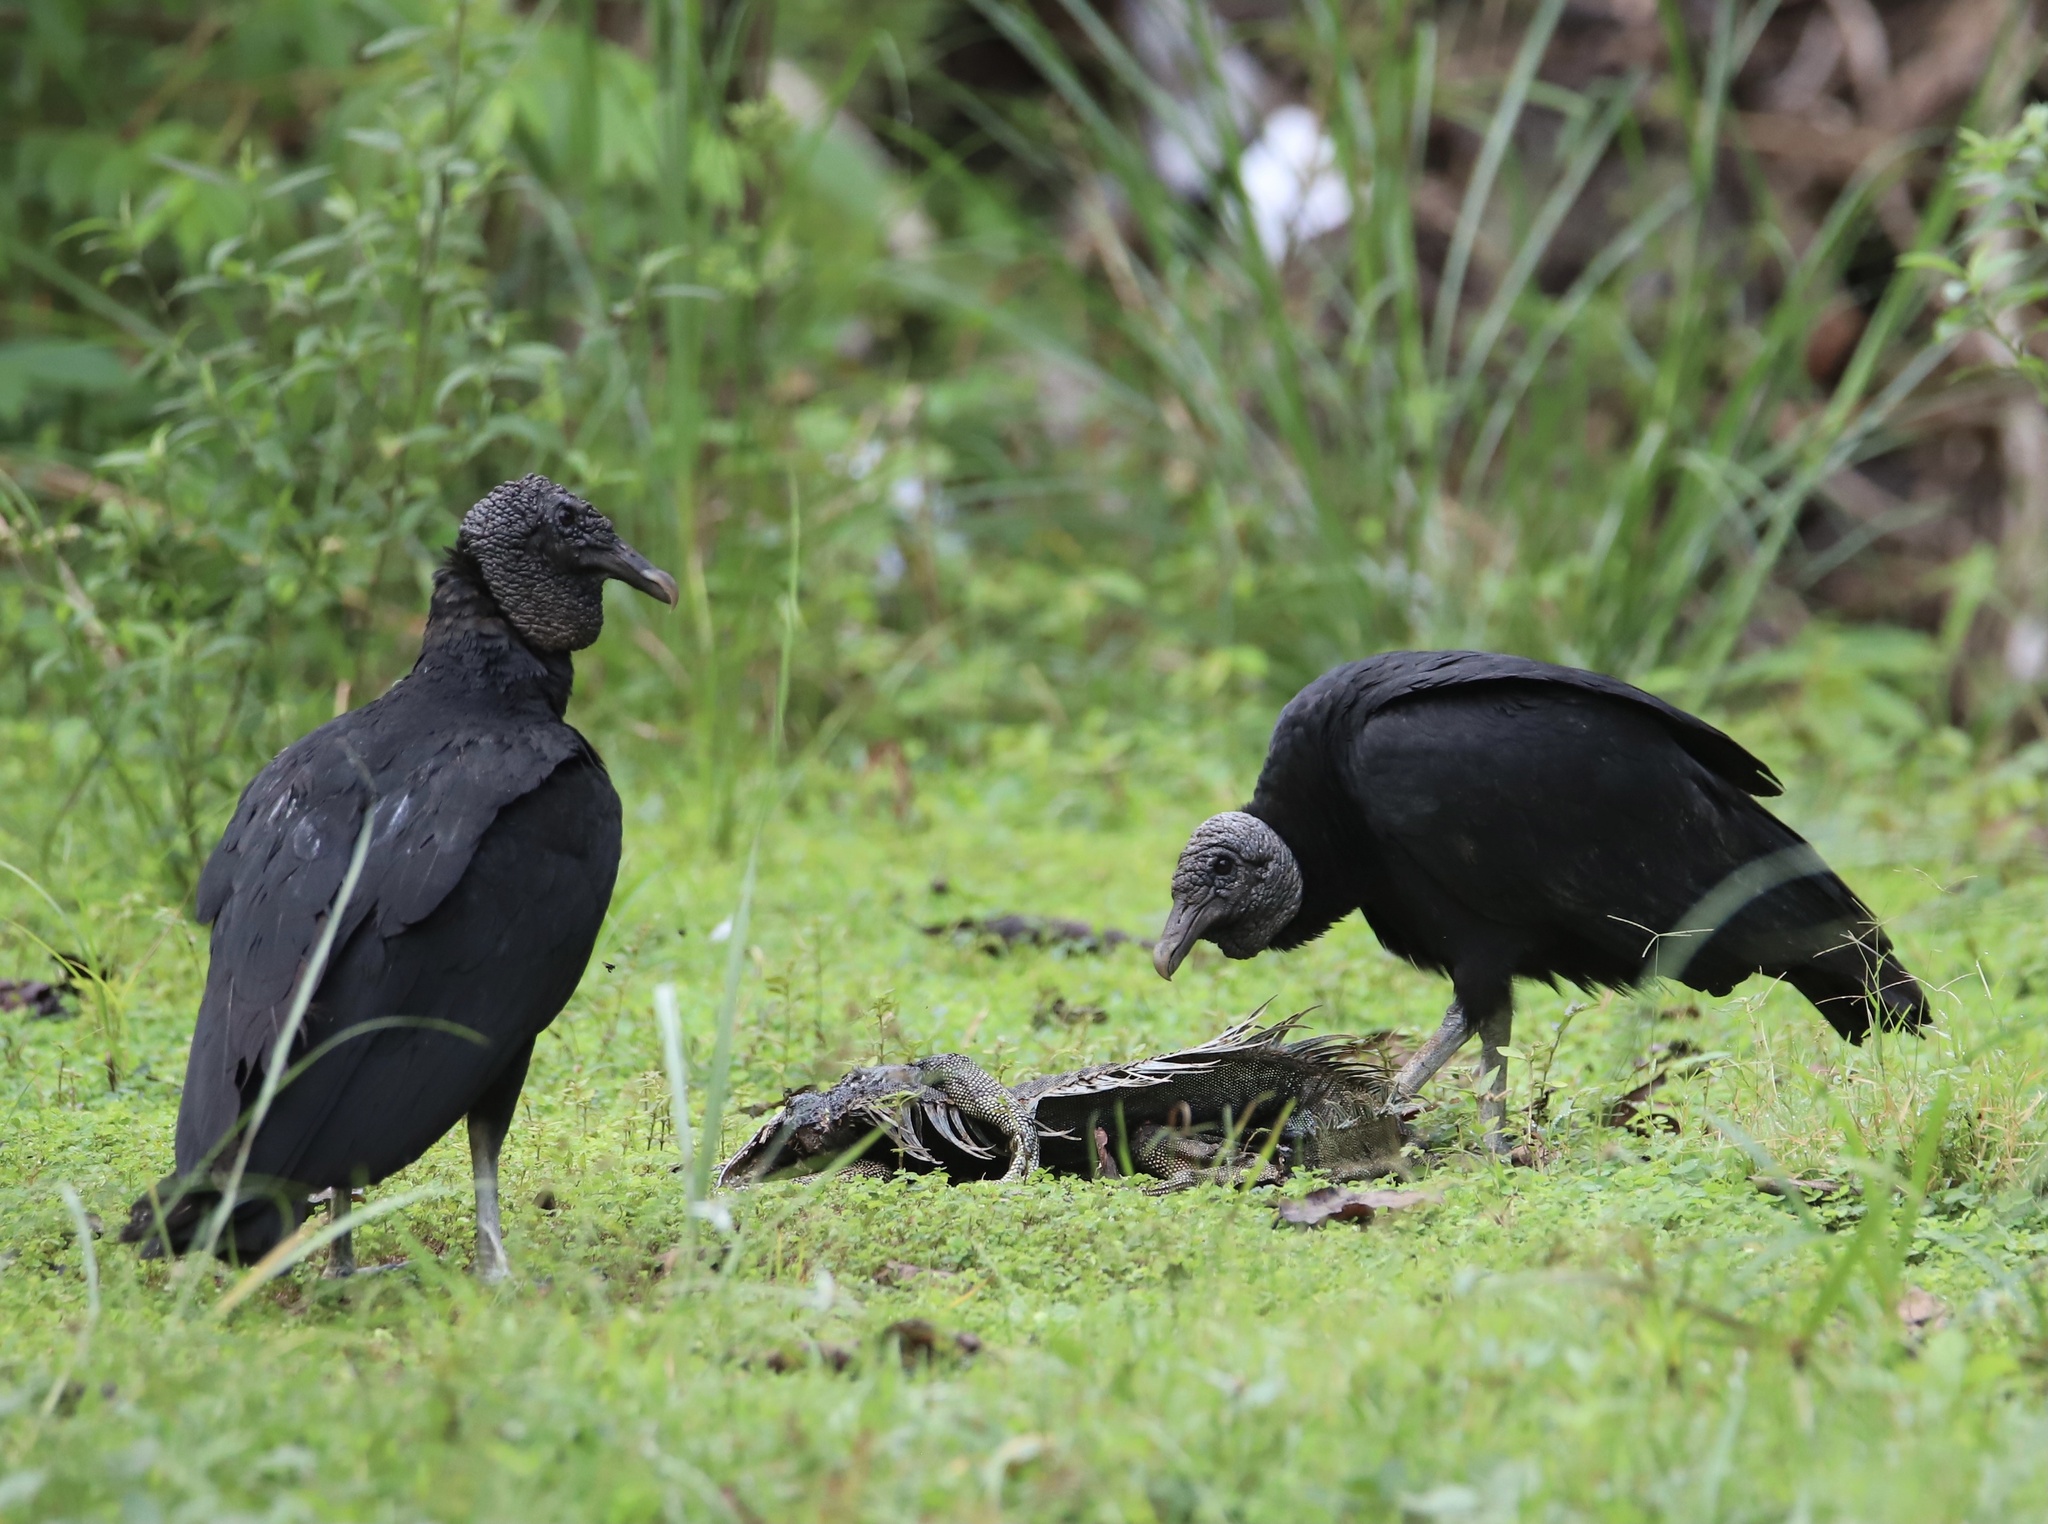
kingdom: Animalia
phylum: Chordata
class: Aves
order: Accipitriformes
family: Cathartidae
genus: Coragyps
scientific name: Coragyps atratus
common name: Black vulture
